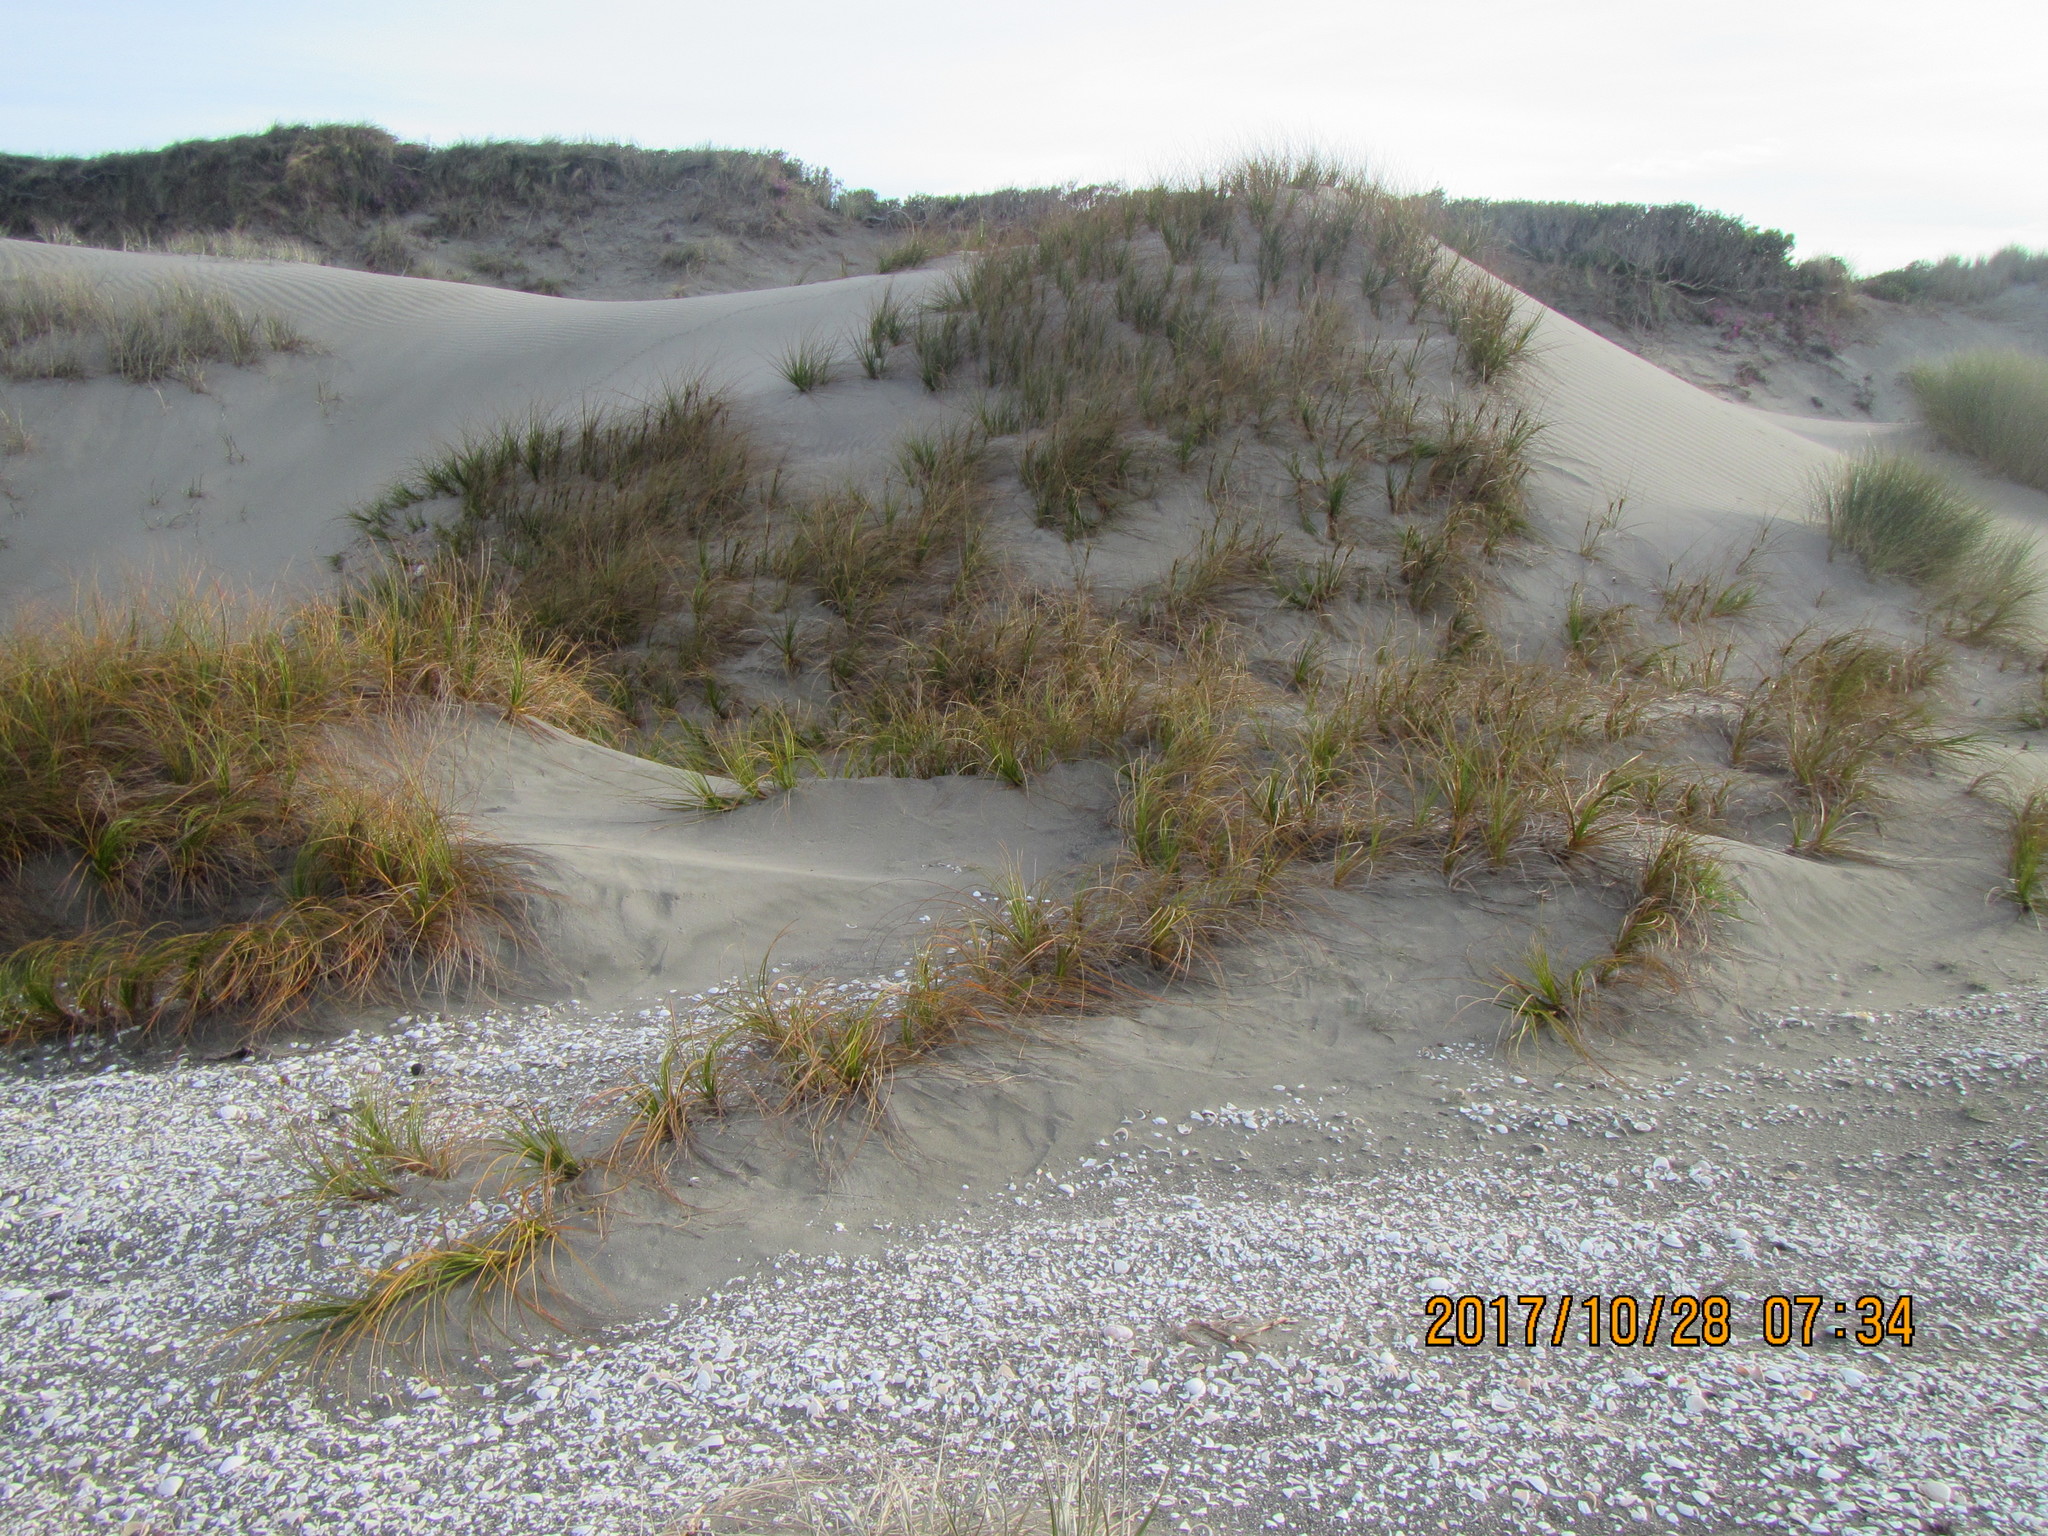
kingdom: Plantae
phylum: Tracheophyta
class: Liliopsida
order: Poales
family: Cyperaceae
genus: Ficinia
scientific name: Ficinia spiralis
